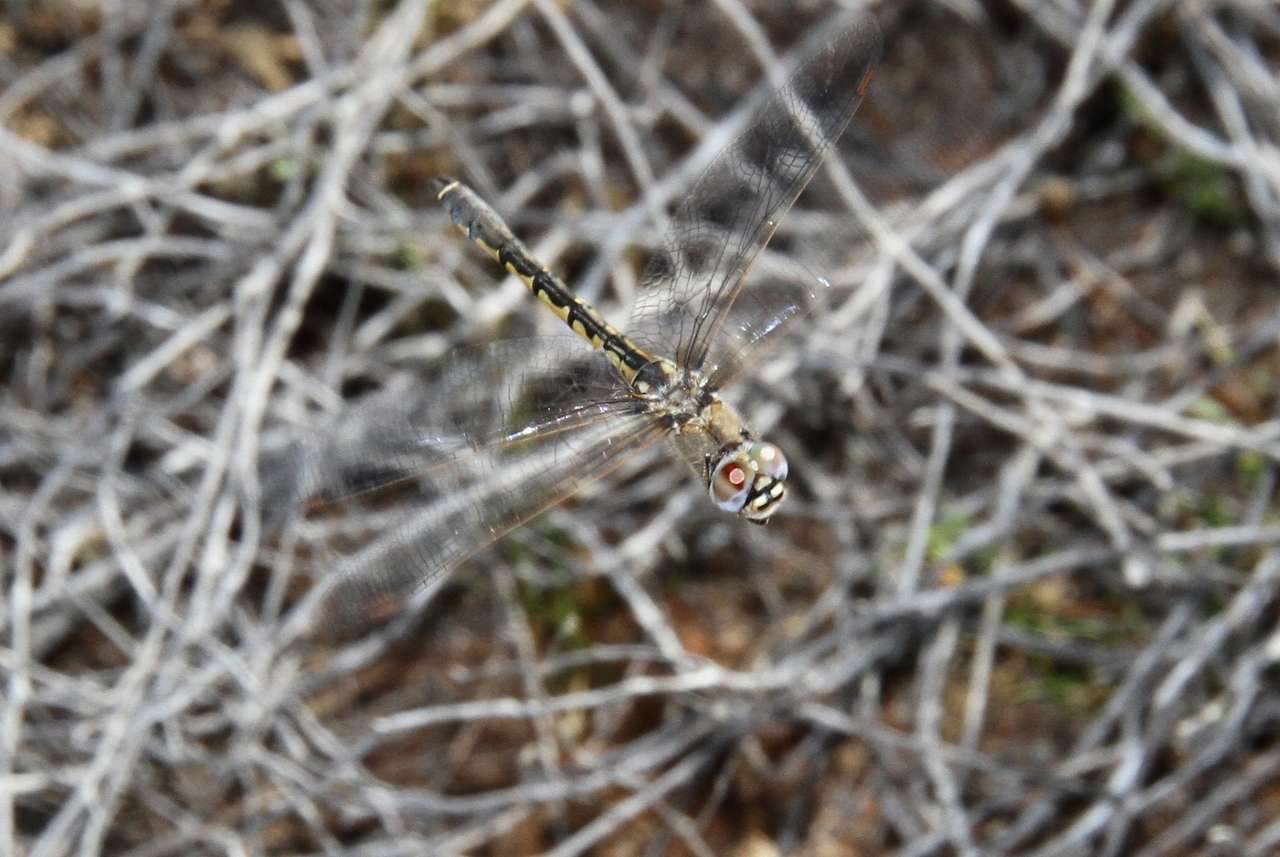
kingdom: Animalia
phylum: Arthropoda
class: Insecta
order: Odonata
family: Corduliidae
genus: Hemicordulia
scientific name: Hemicordulia tau
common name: Tau emerald
